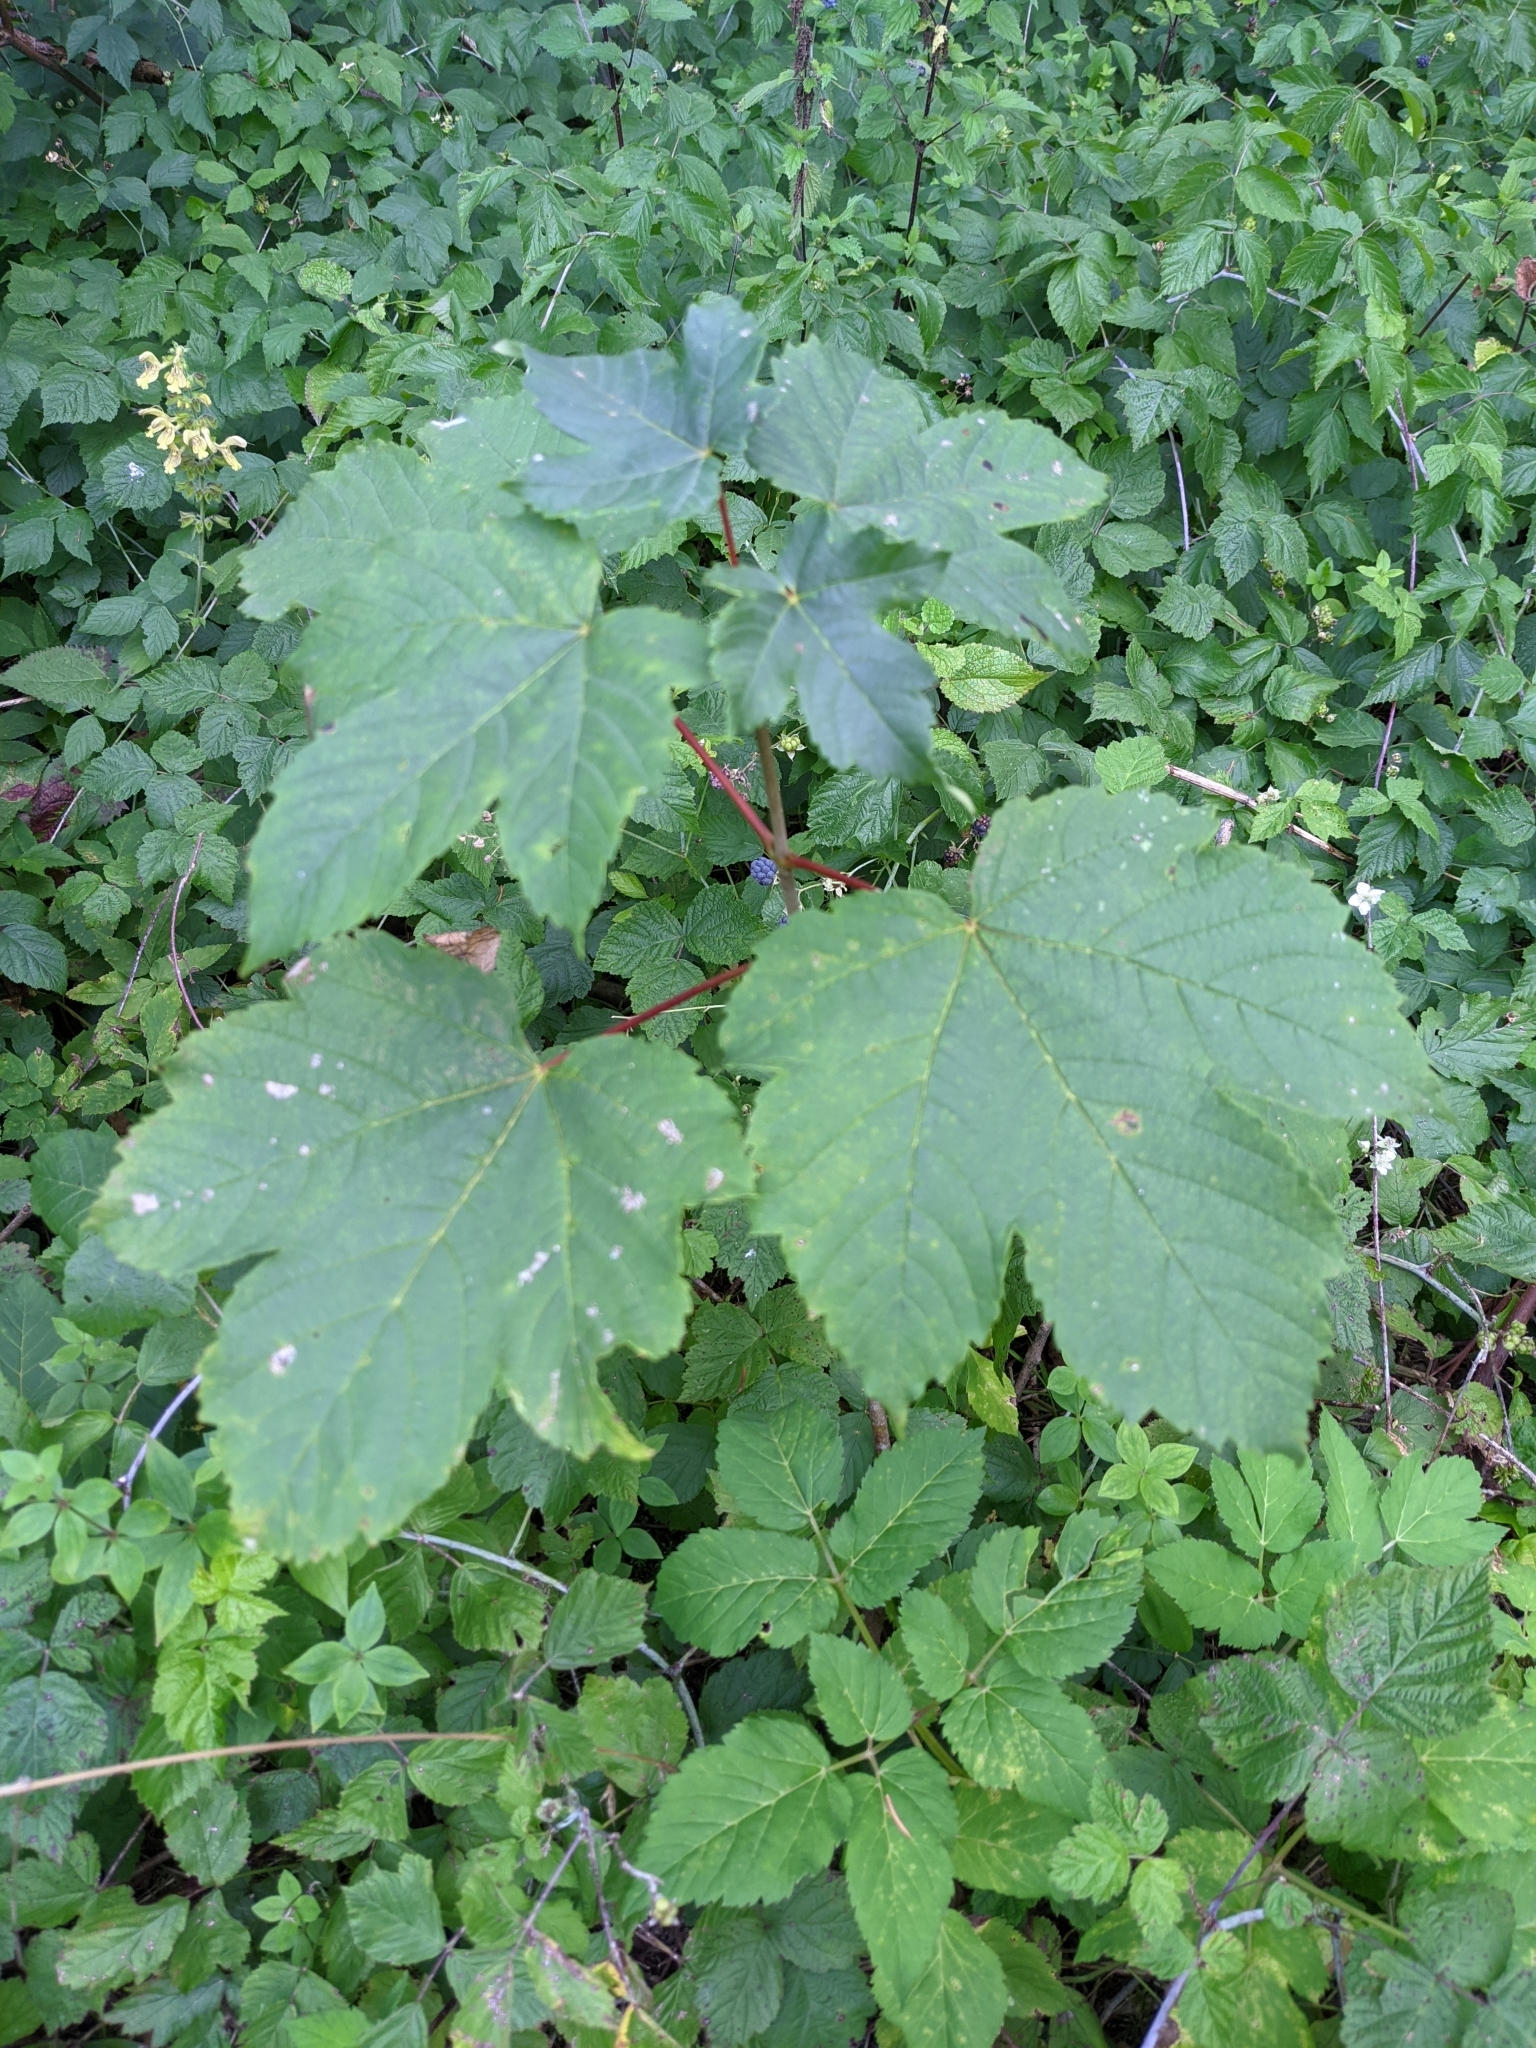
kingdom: Plantae
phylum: Tracheophyta
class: Magnoliopsida
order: Sapindales
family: Sapindaceae
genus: Acer
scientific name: Acer pseudoplatanus
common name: Sycamore
